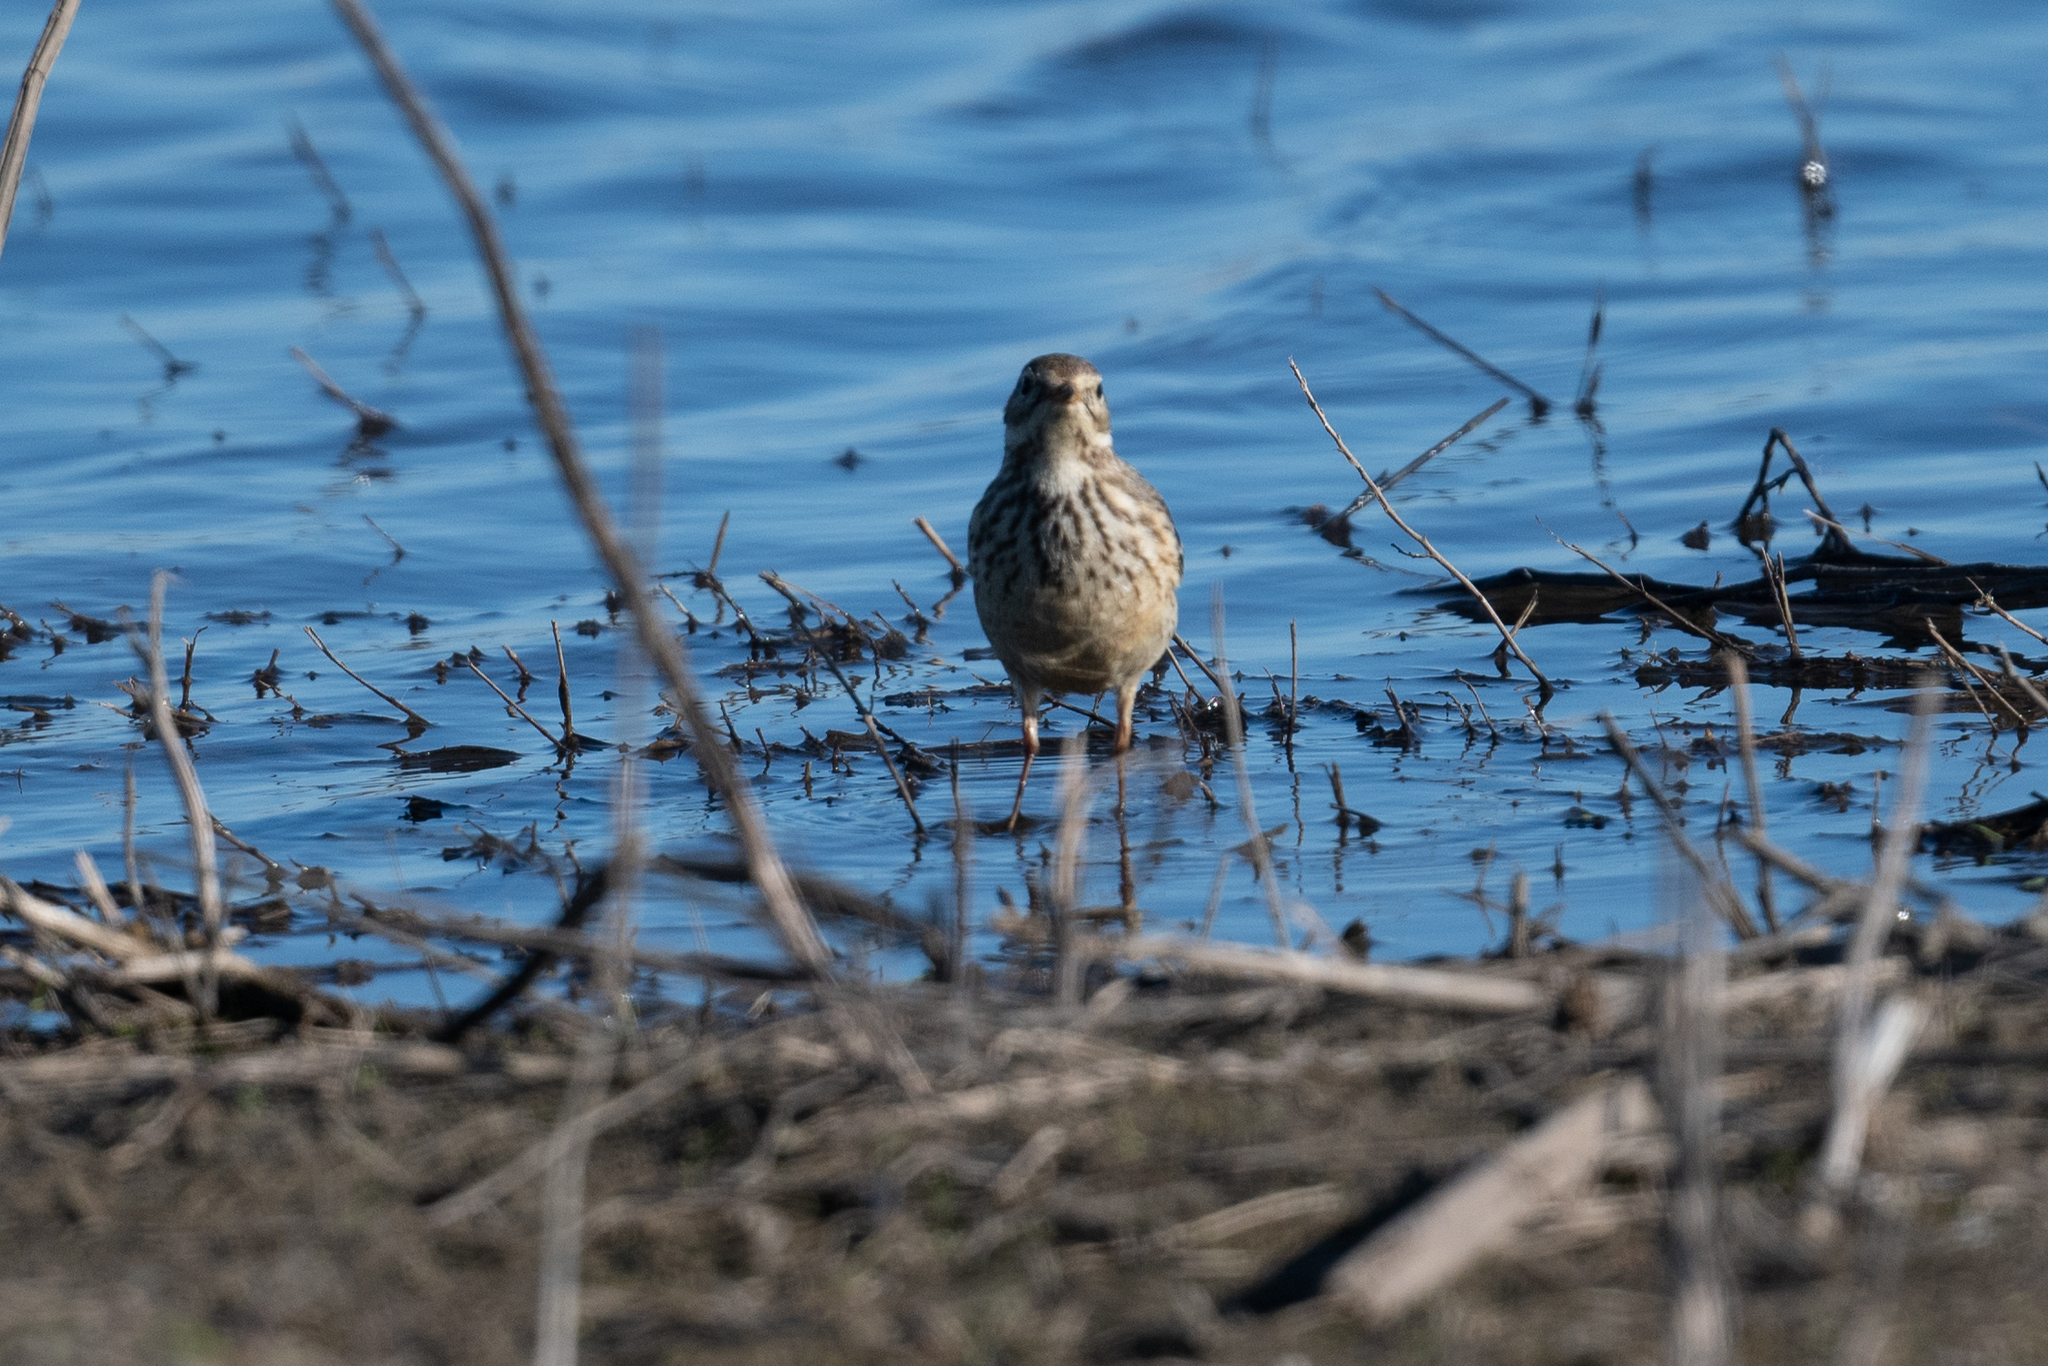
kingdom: Animalia
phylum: Chordata
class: Aves
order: Passeriformes
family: Motacillidae
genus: Anthus
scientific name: Anthus rubescens
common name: Buff-bellied pipit
